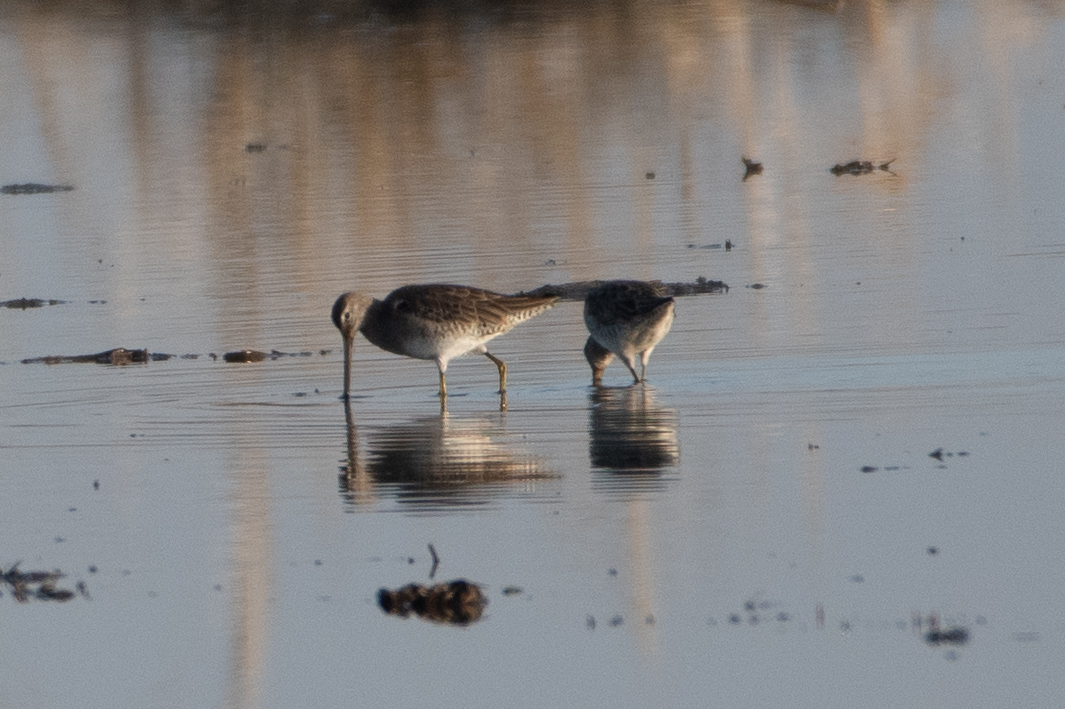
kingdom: Animalia
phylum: Chordata
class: Aves
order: Charadriiformes
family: Scolopacidae
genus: Limnodromus
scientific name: Limnodromus scolopaceus
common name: Long-billed dowitcher
